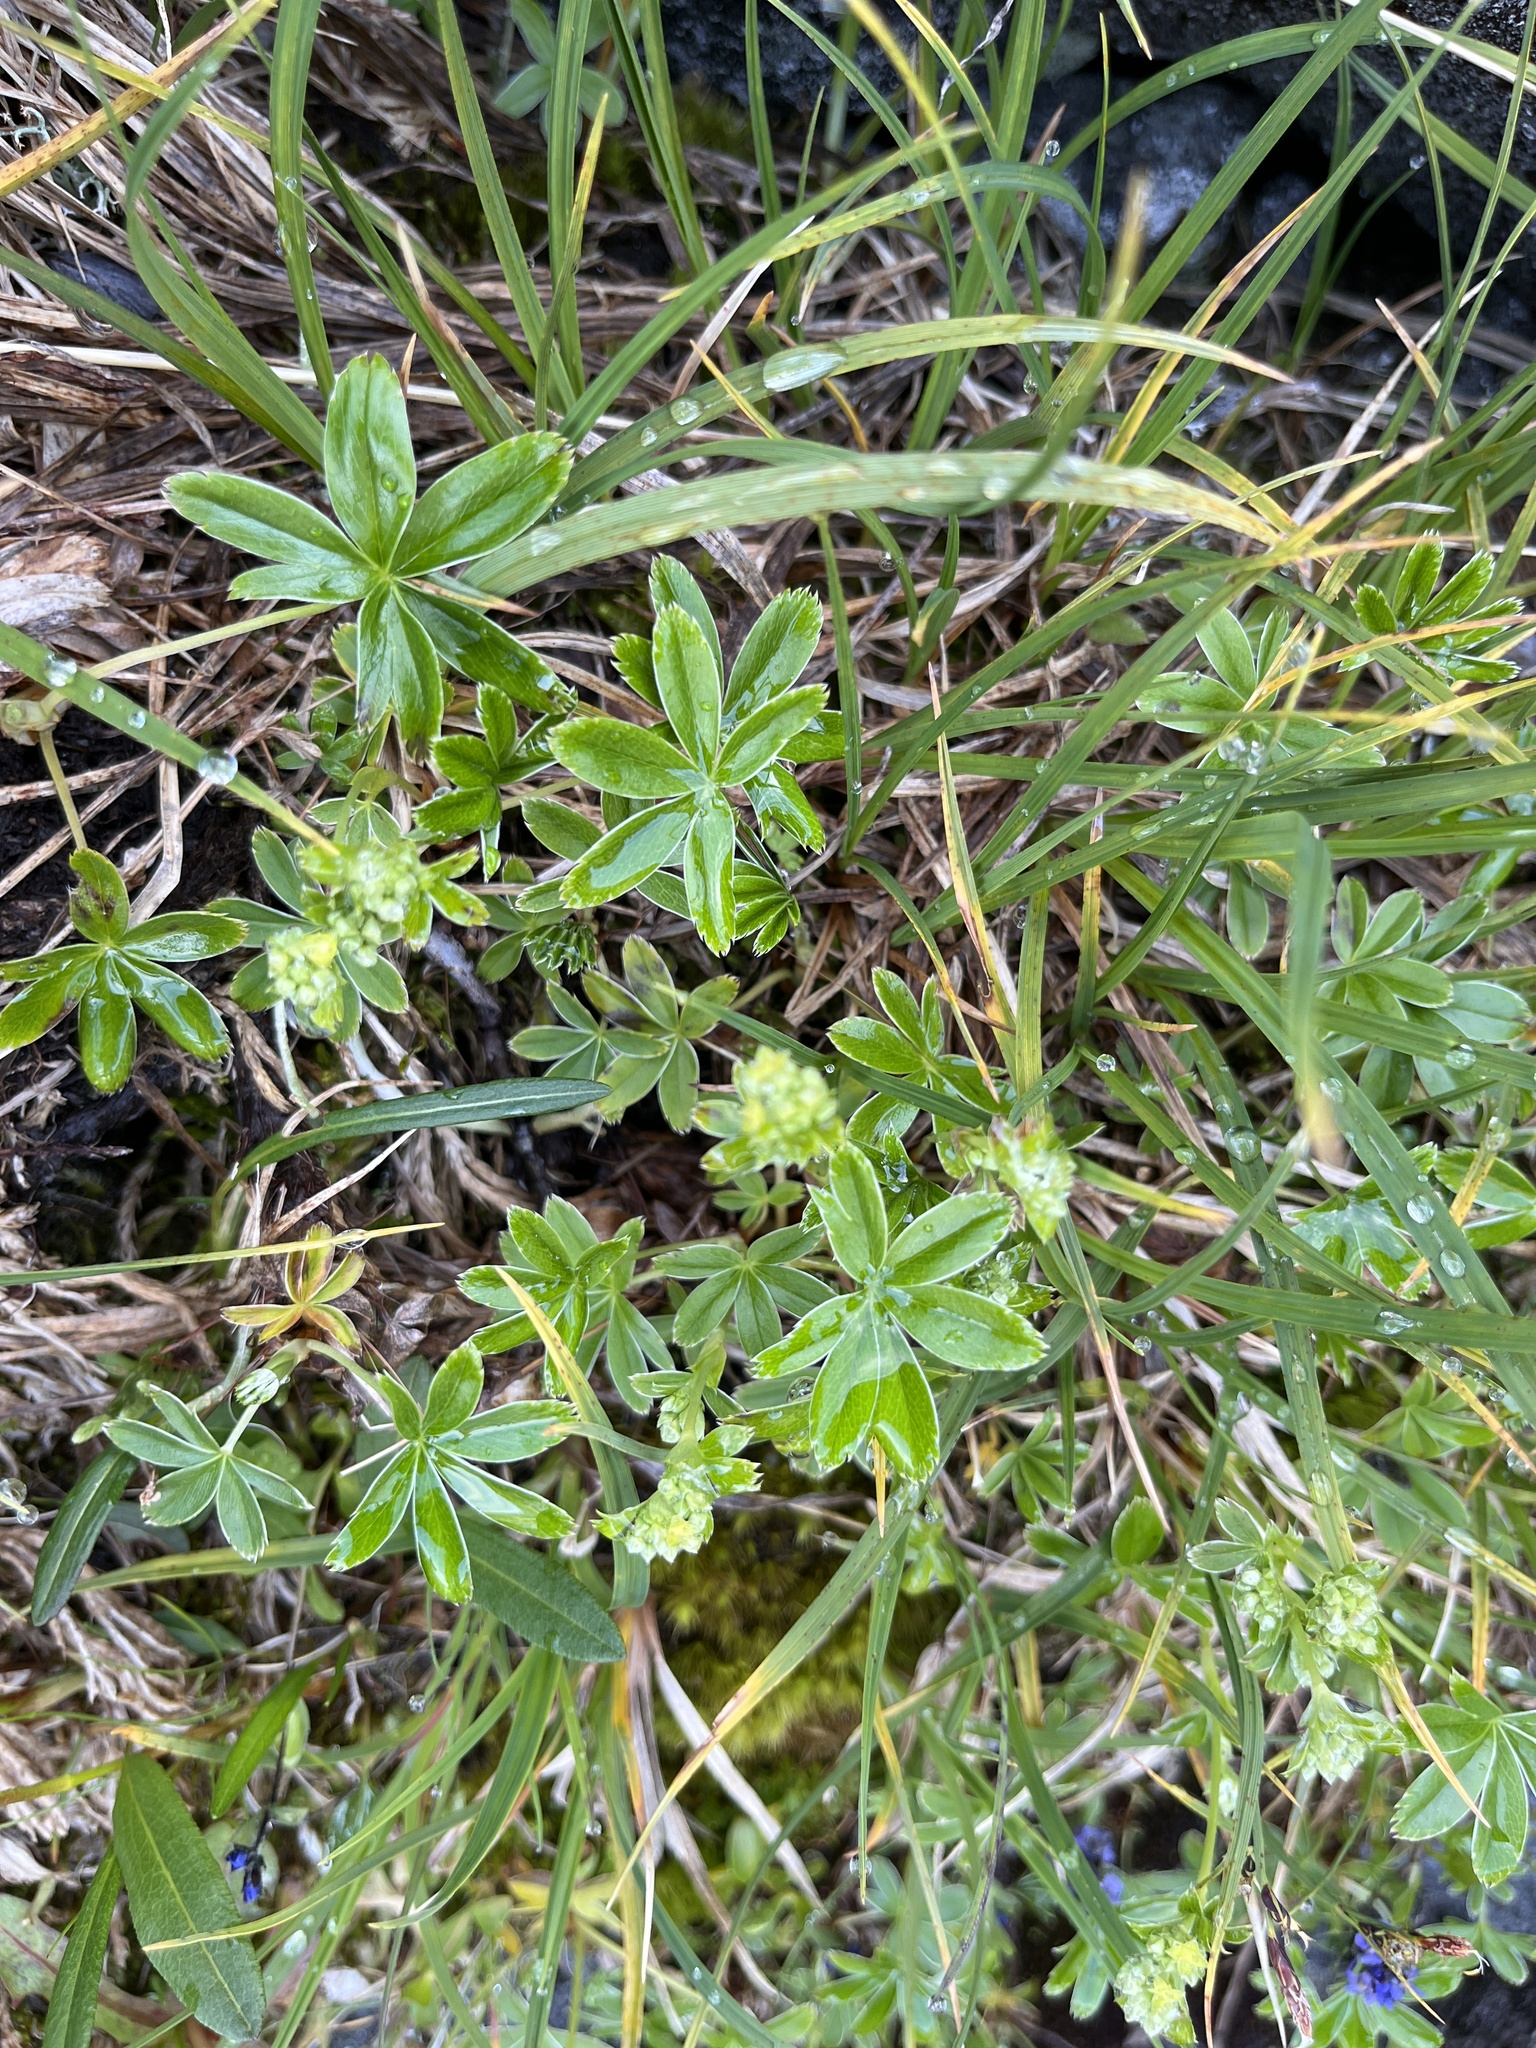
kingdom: Plantae
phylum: Tracheophyta
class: Magnoliopsida
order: Rosales
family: Rosaceae
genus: Alchemilla
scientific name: Alchemilla alpina
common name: Alpine lady's-mantle
